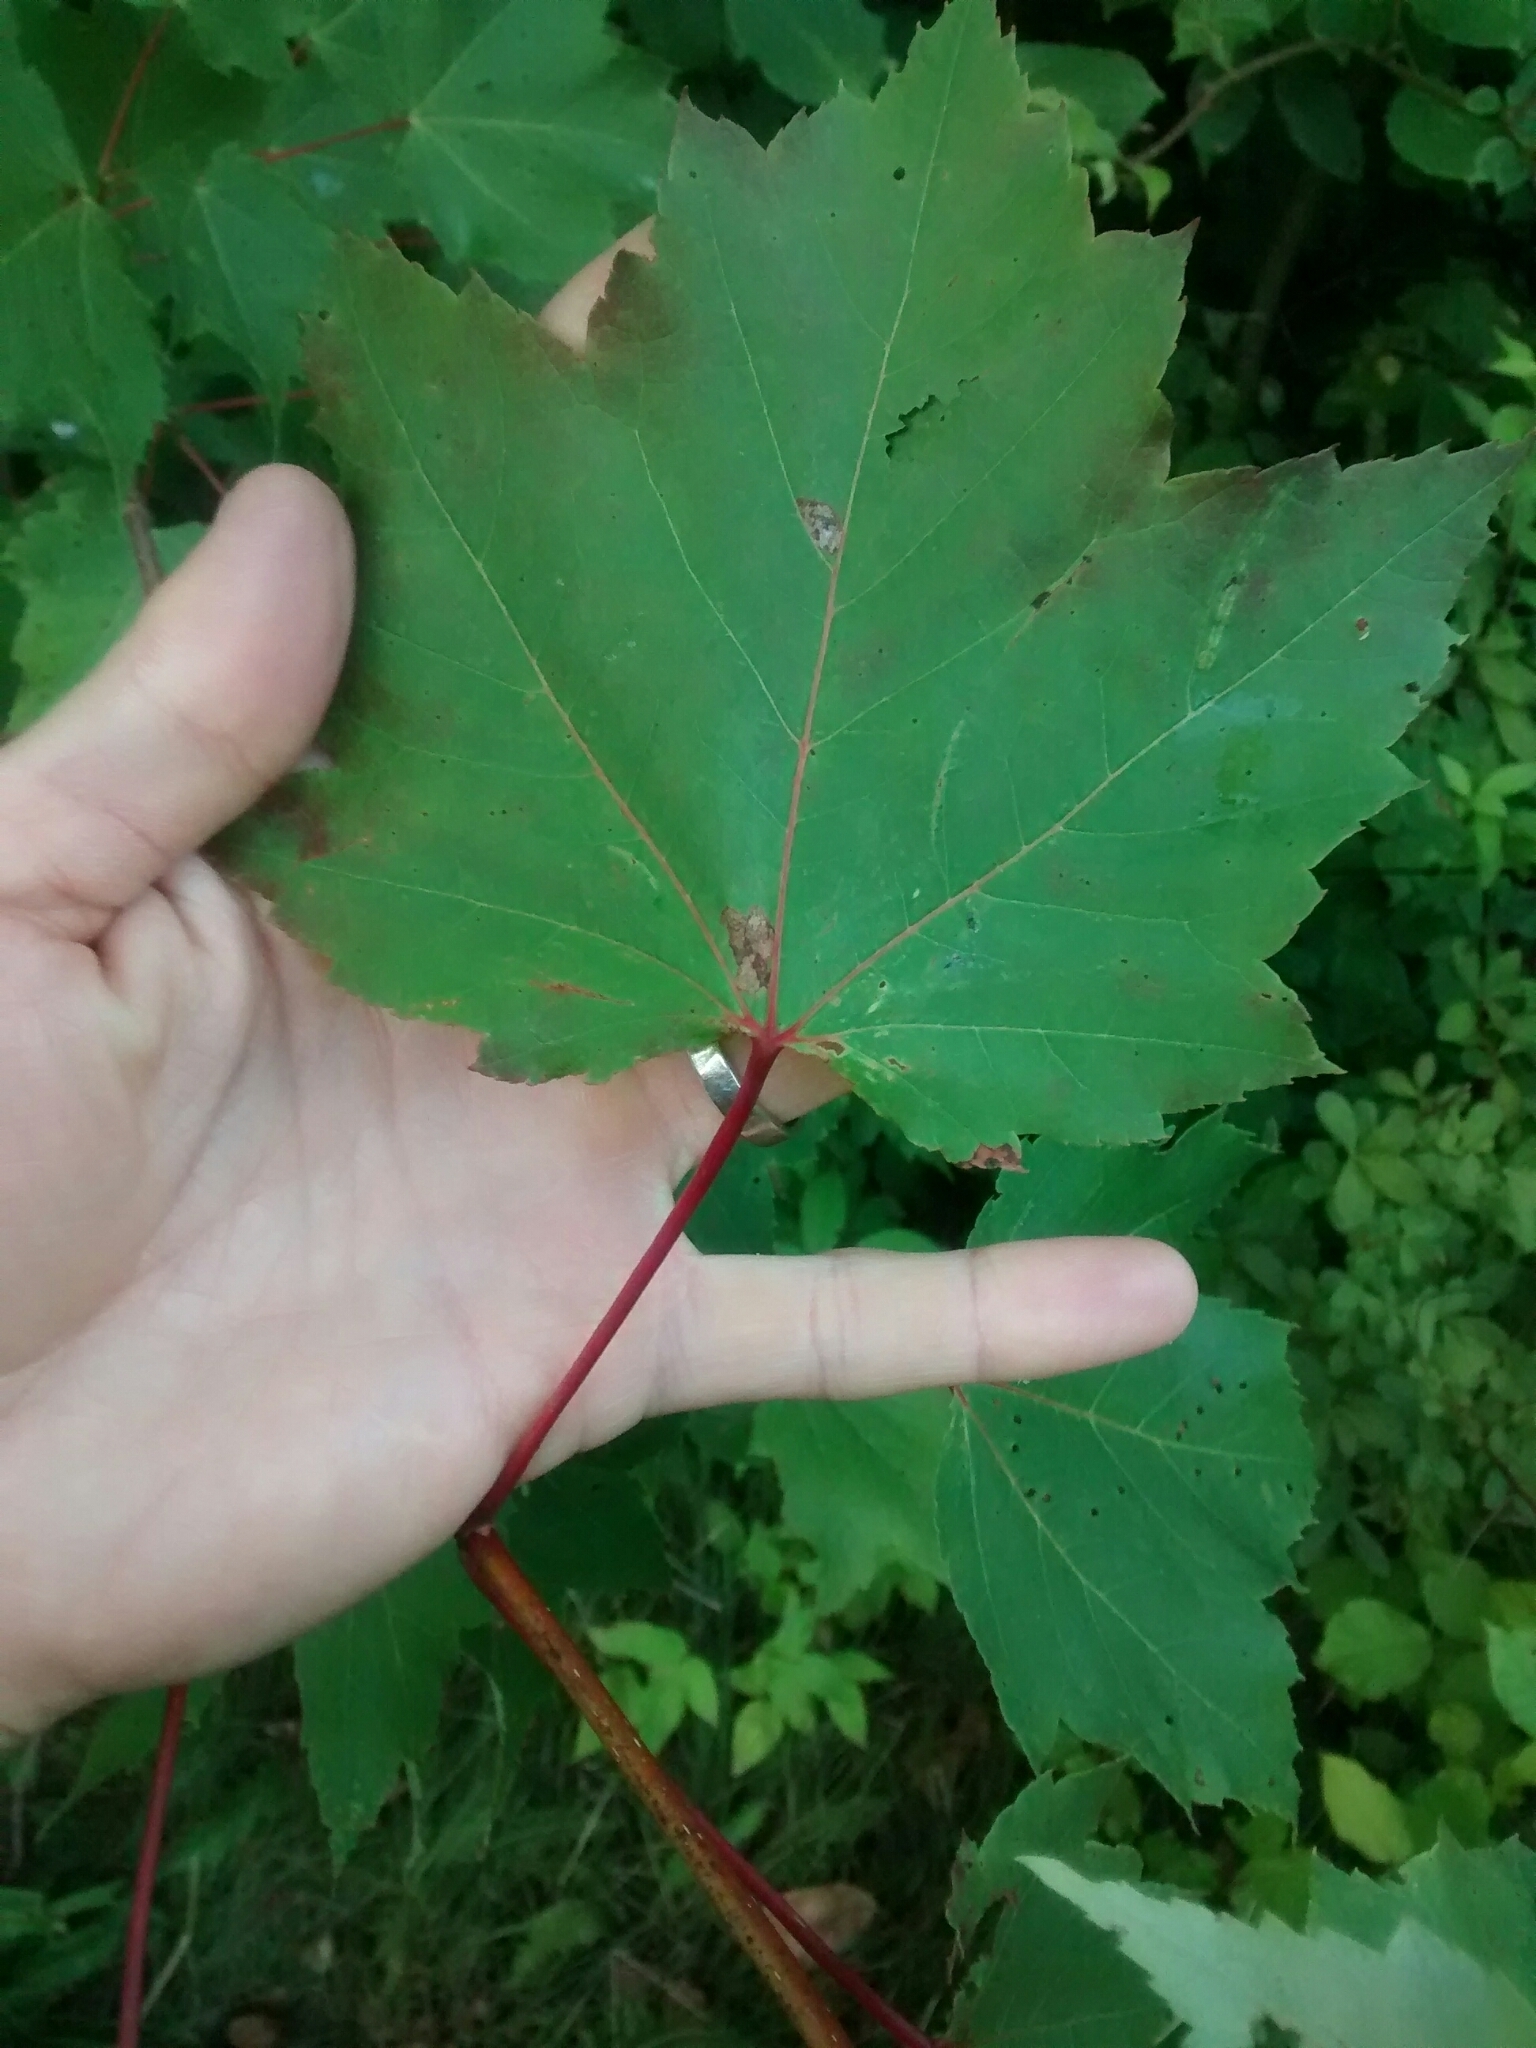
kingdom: Plantae
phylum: Tracheophyta
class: Magnoliopsida
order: Sapindales
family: Sapindaceae
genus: Acer
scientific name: Acer rubrum
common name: Red maple
